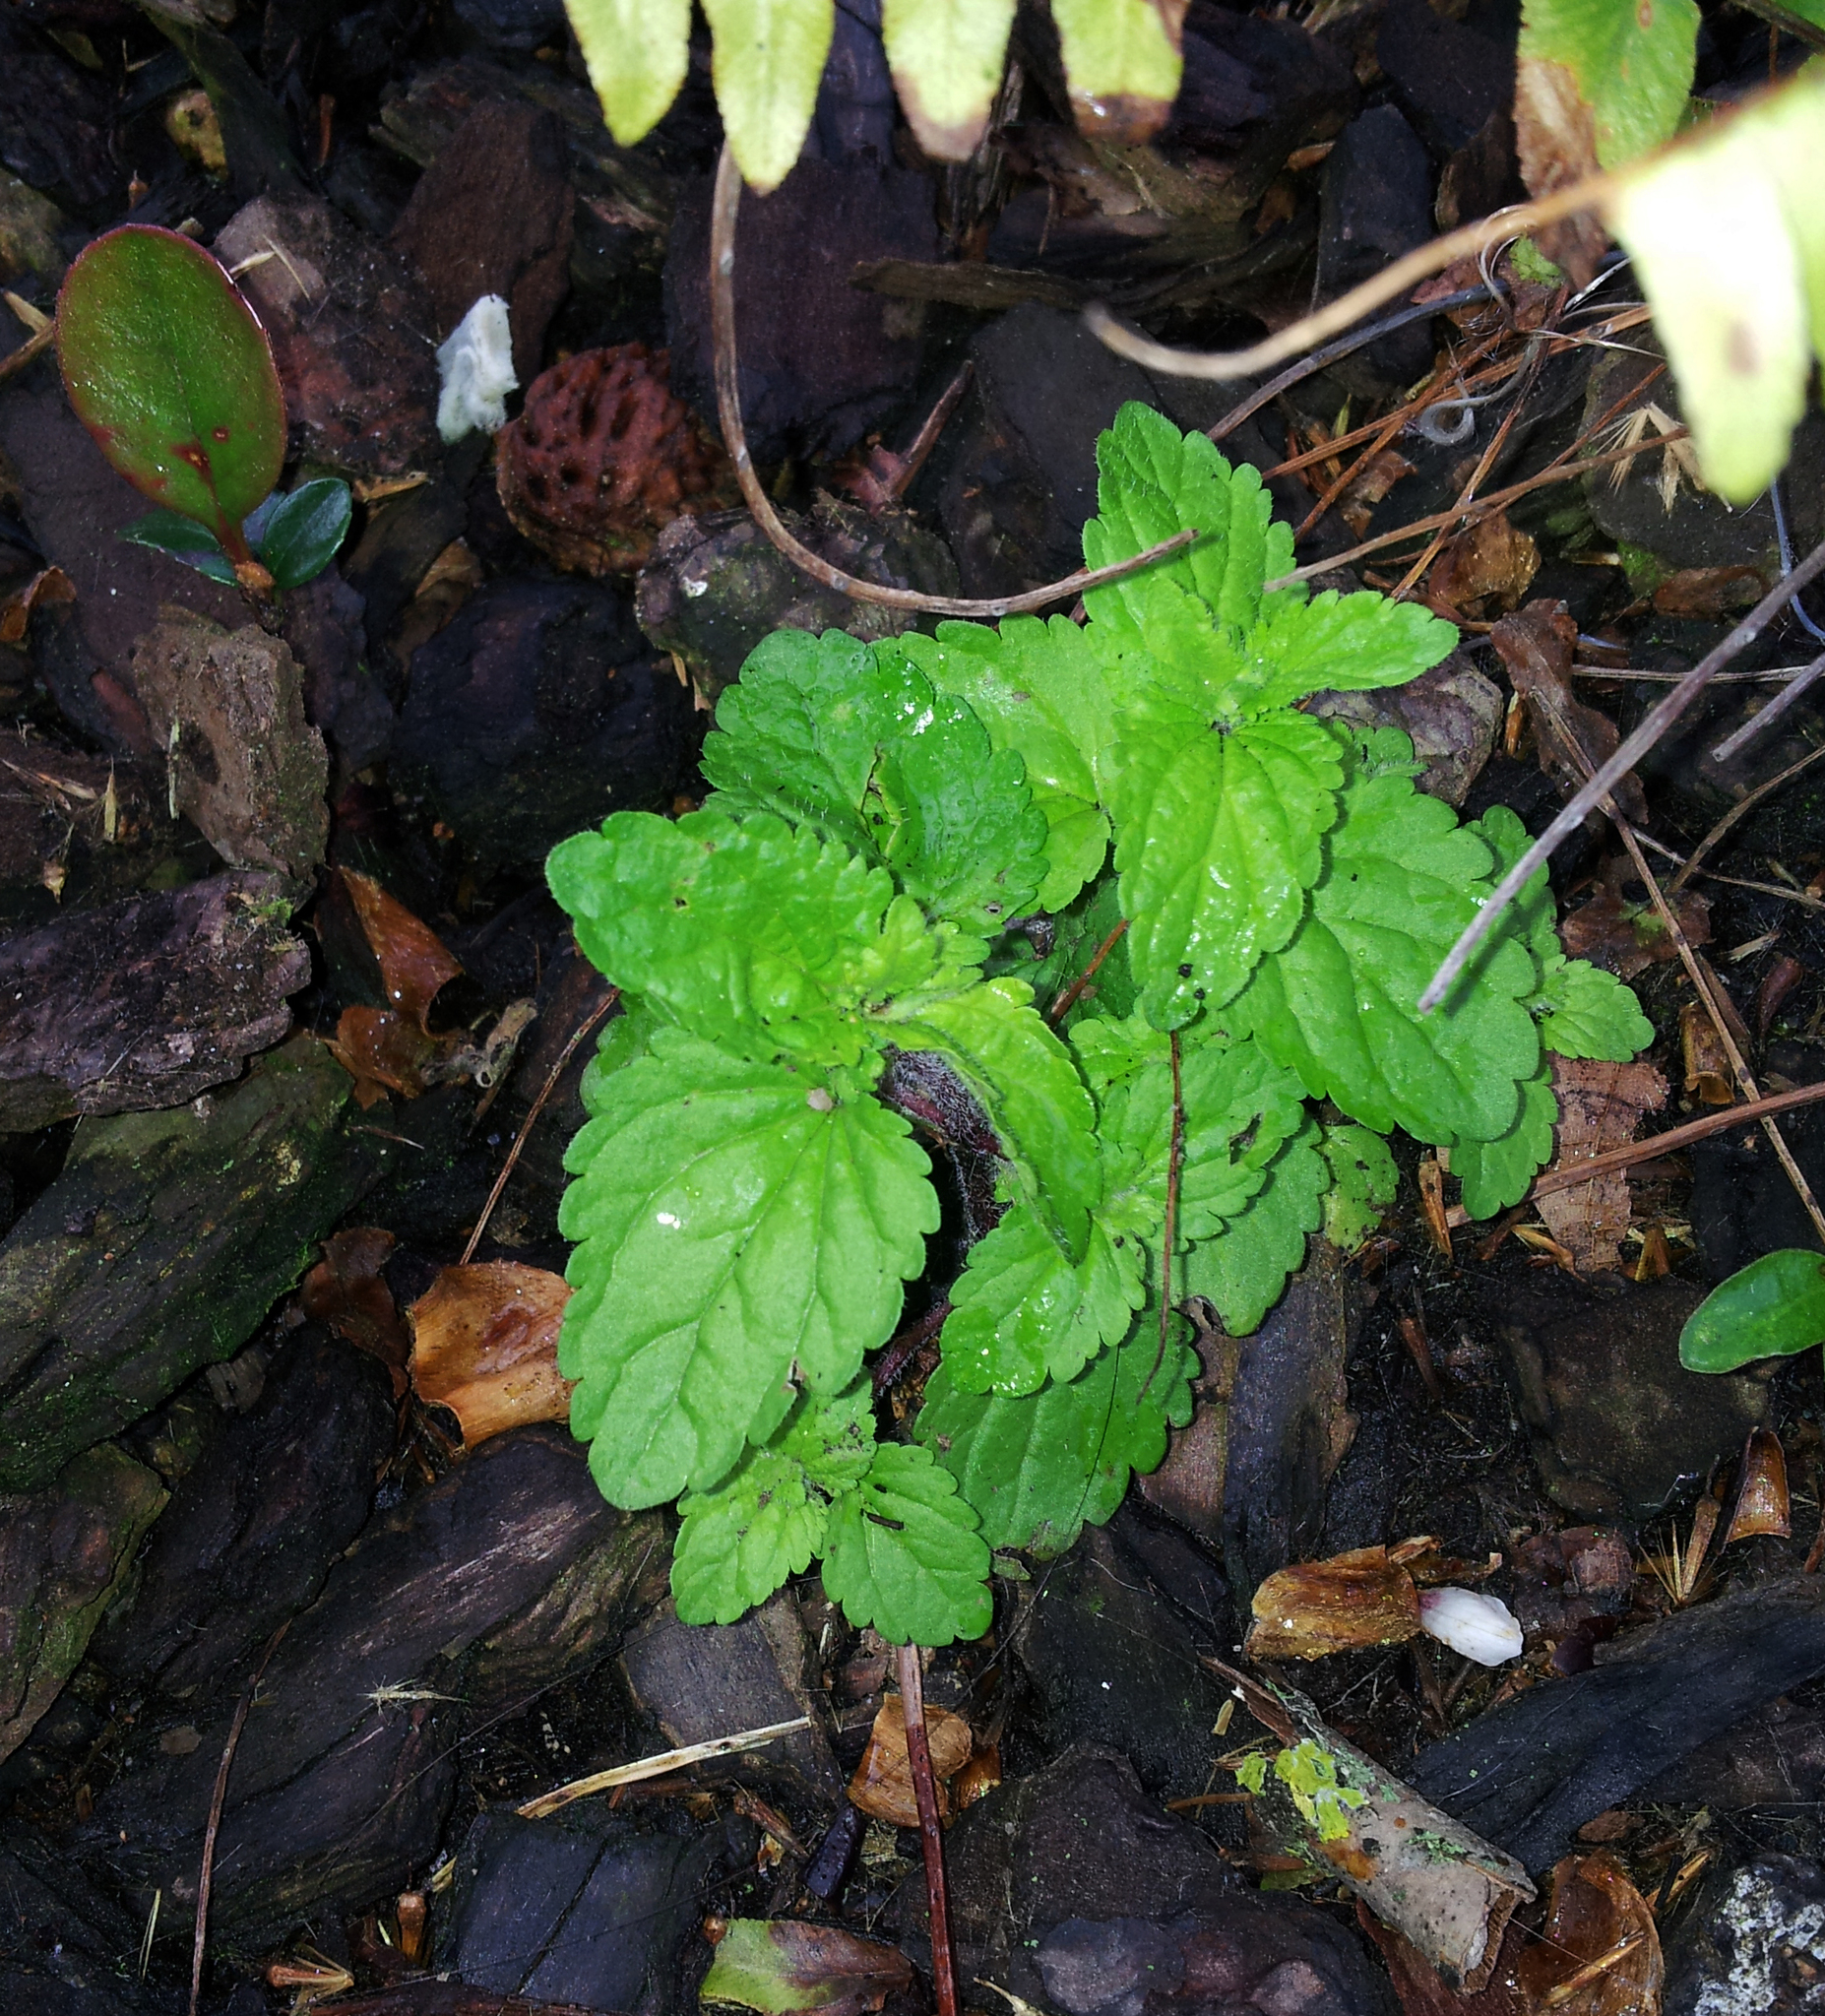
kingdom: Plantae
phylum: Tracheophyta
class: Magnoliopsida
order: Lamiales
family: Plantaginaceae
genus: Veronica
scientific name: Veronica javanica
